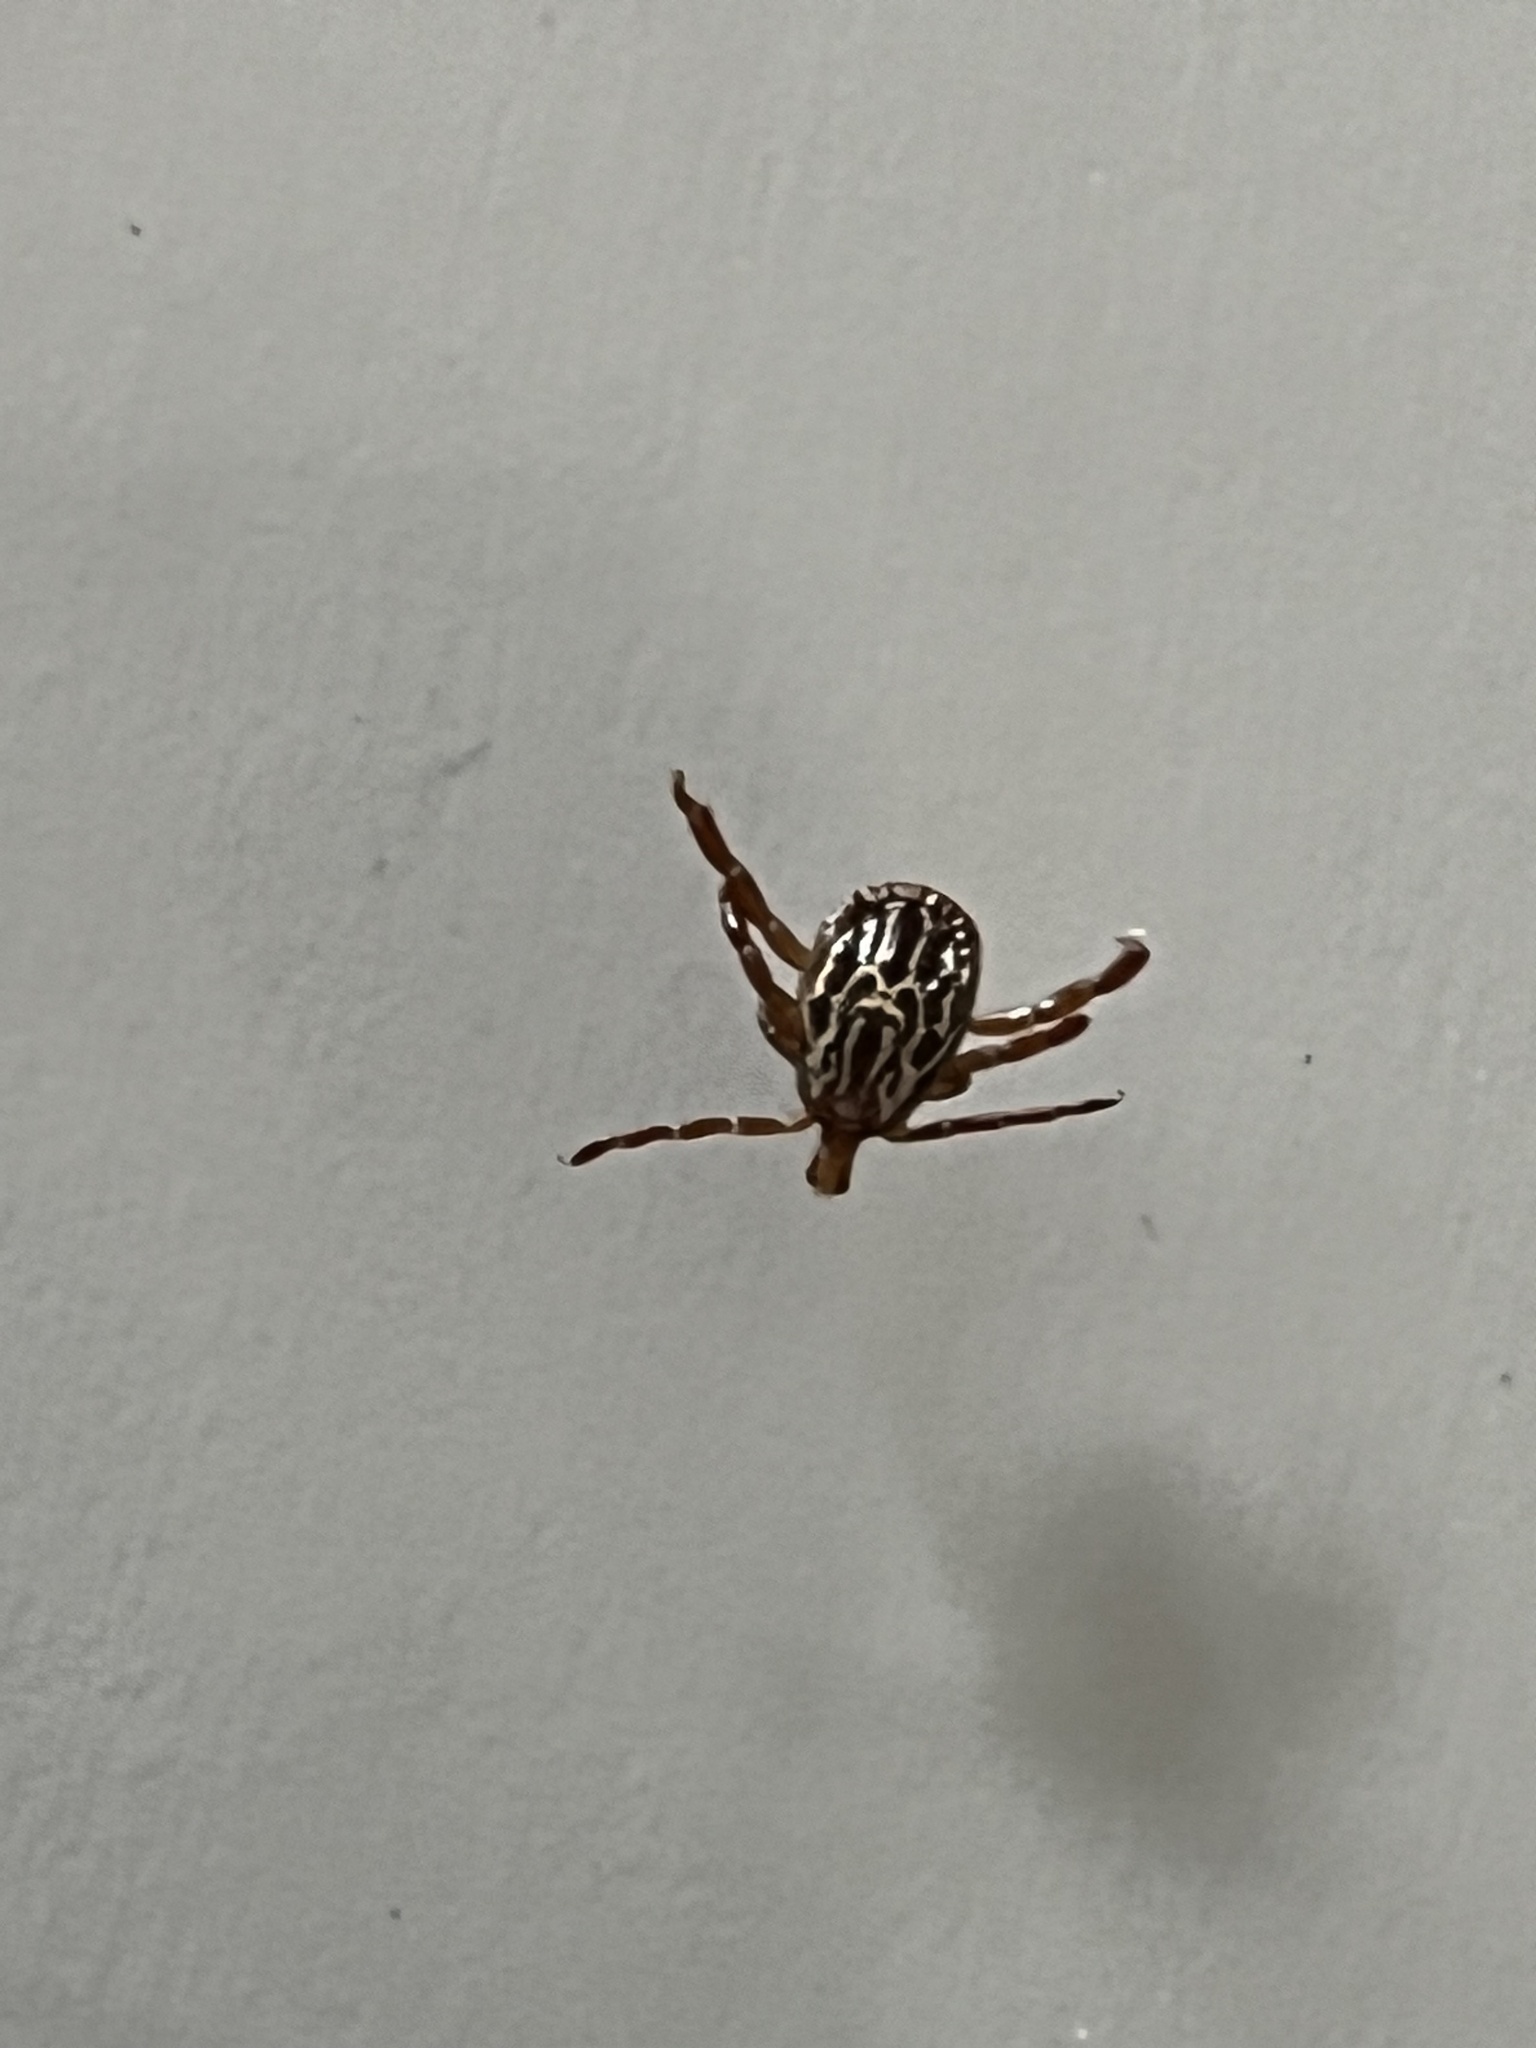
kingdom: Animalia
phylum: Arthropoda
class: Arachnida
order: Ixodida
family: Ixodidae
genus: Amblyomma
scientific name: Amblyomma maculatum
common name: Gulf coast tick
